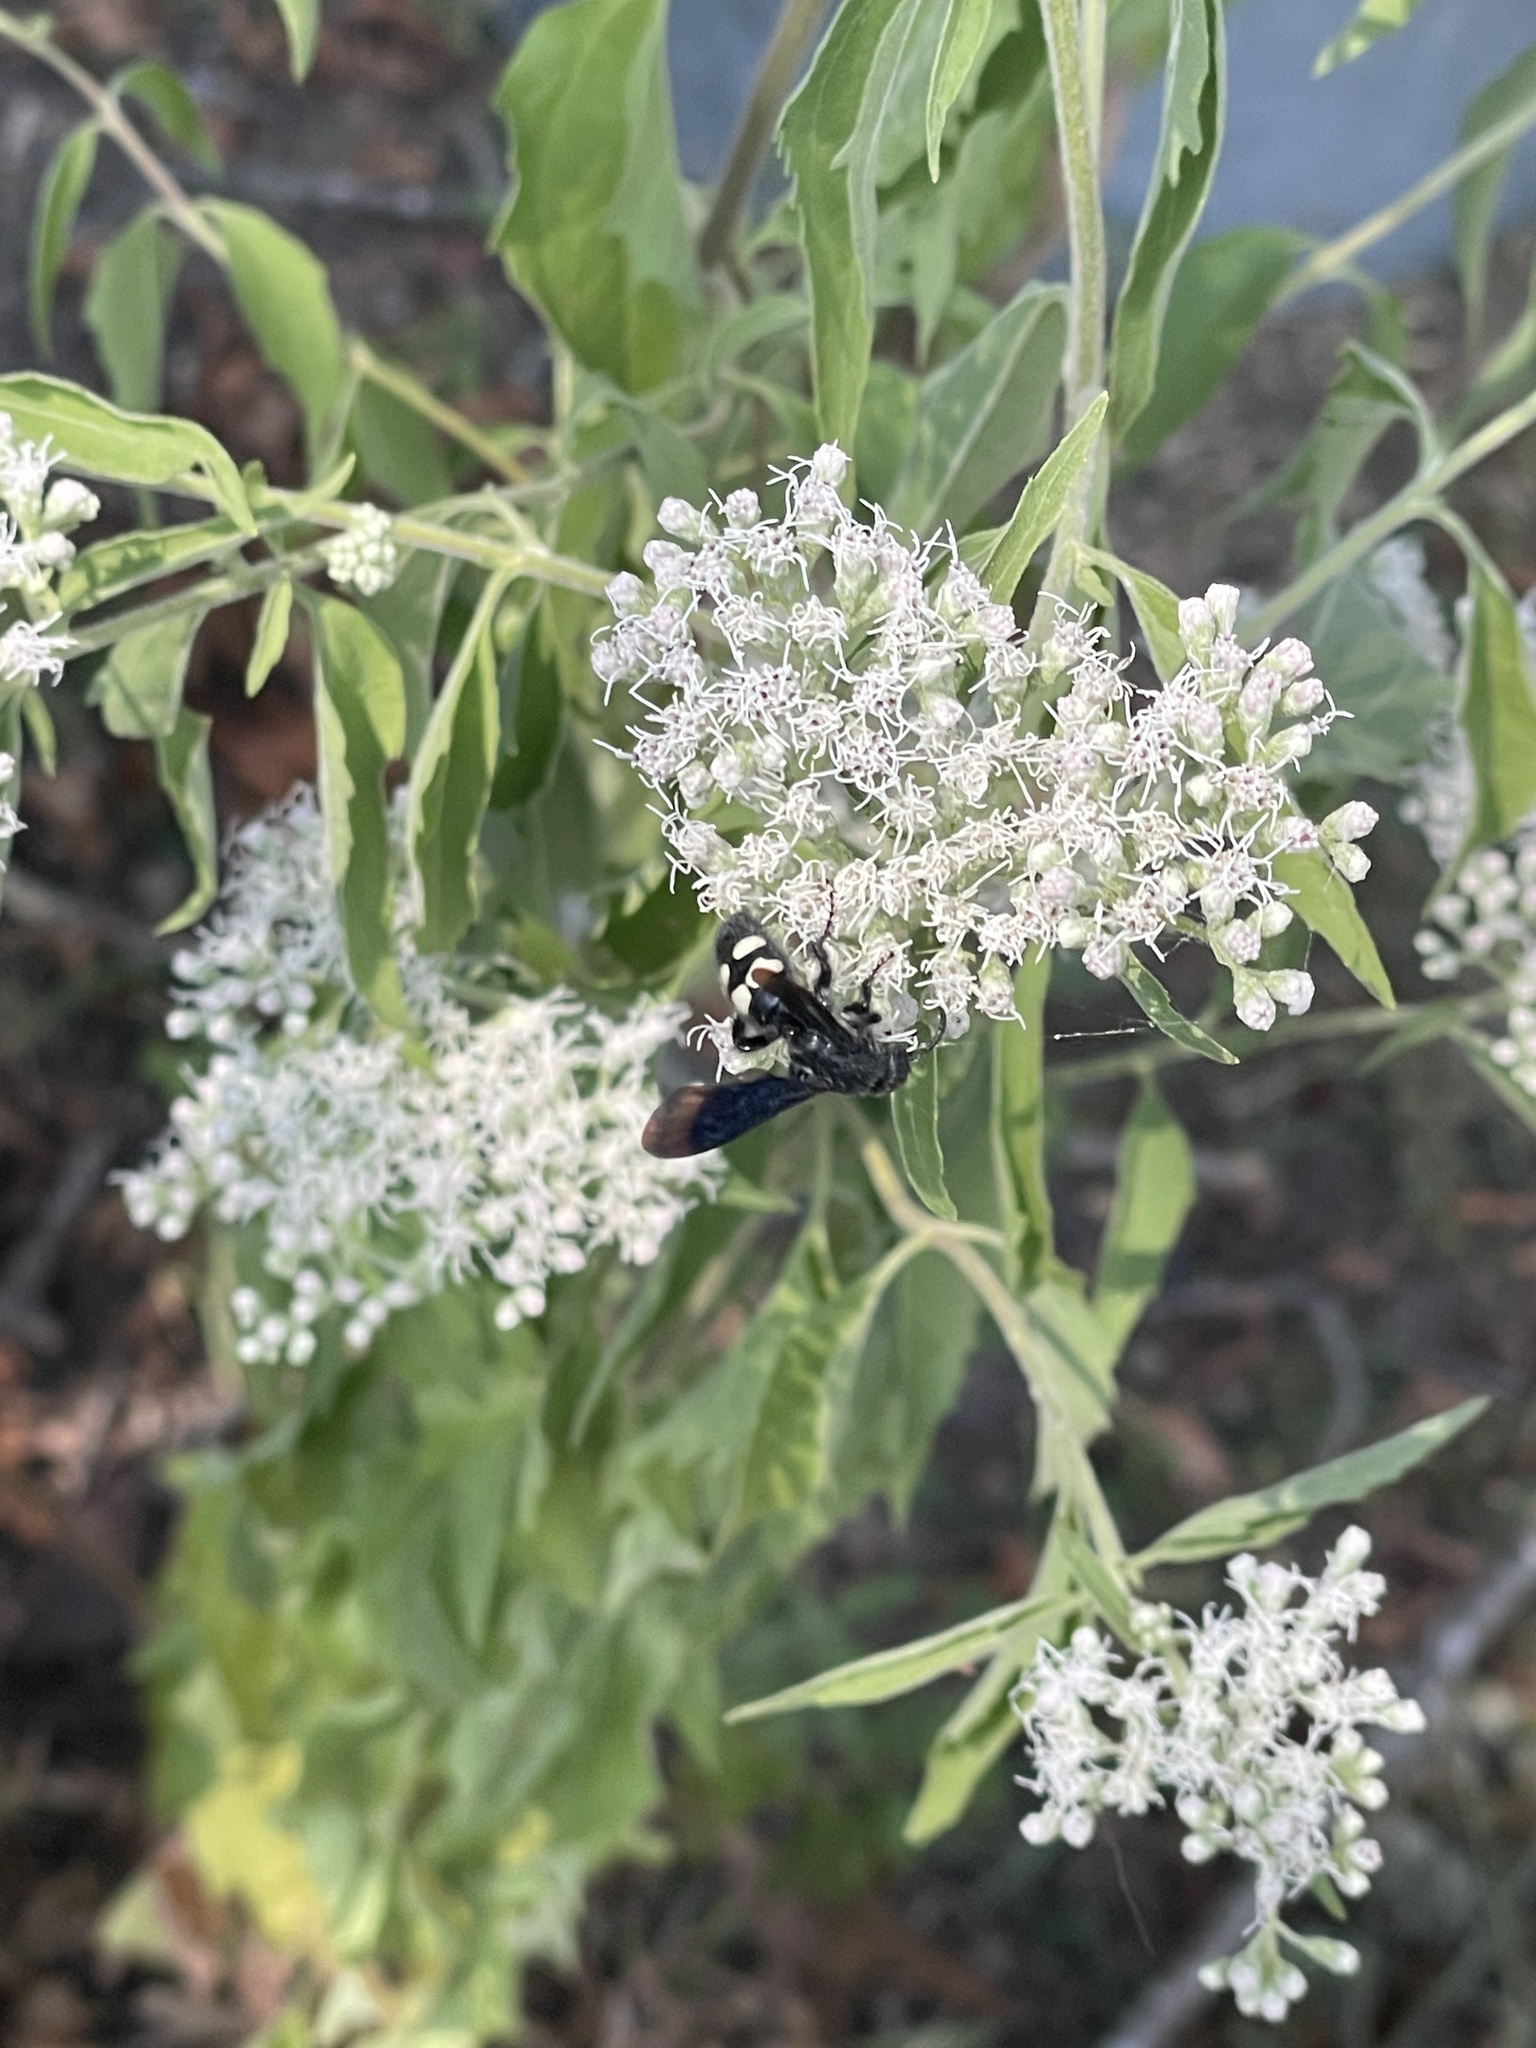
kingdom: Animalia
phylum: Arthropoda
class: Insecta
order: Hymenoptera
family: Scoliidae
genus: Scolia
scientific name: Scolia bicincta
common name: Double-banded scoliid wasp
